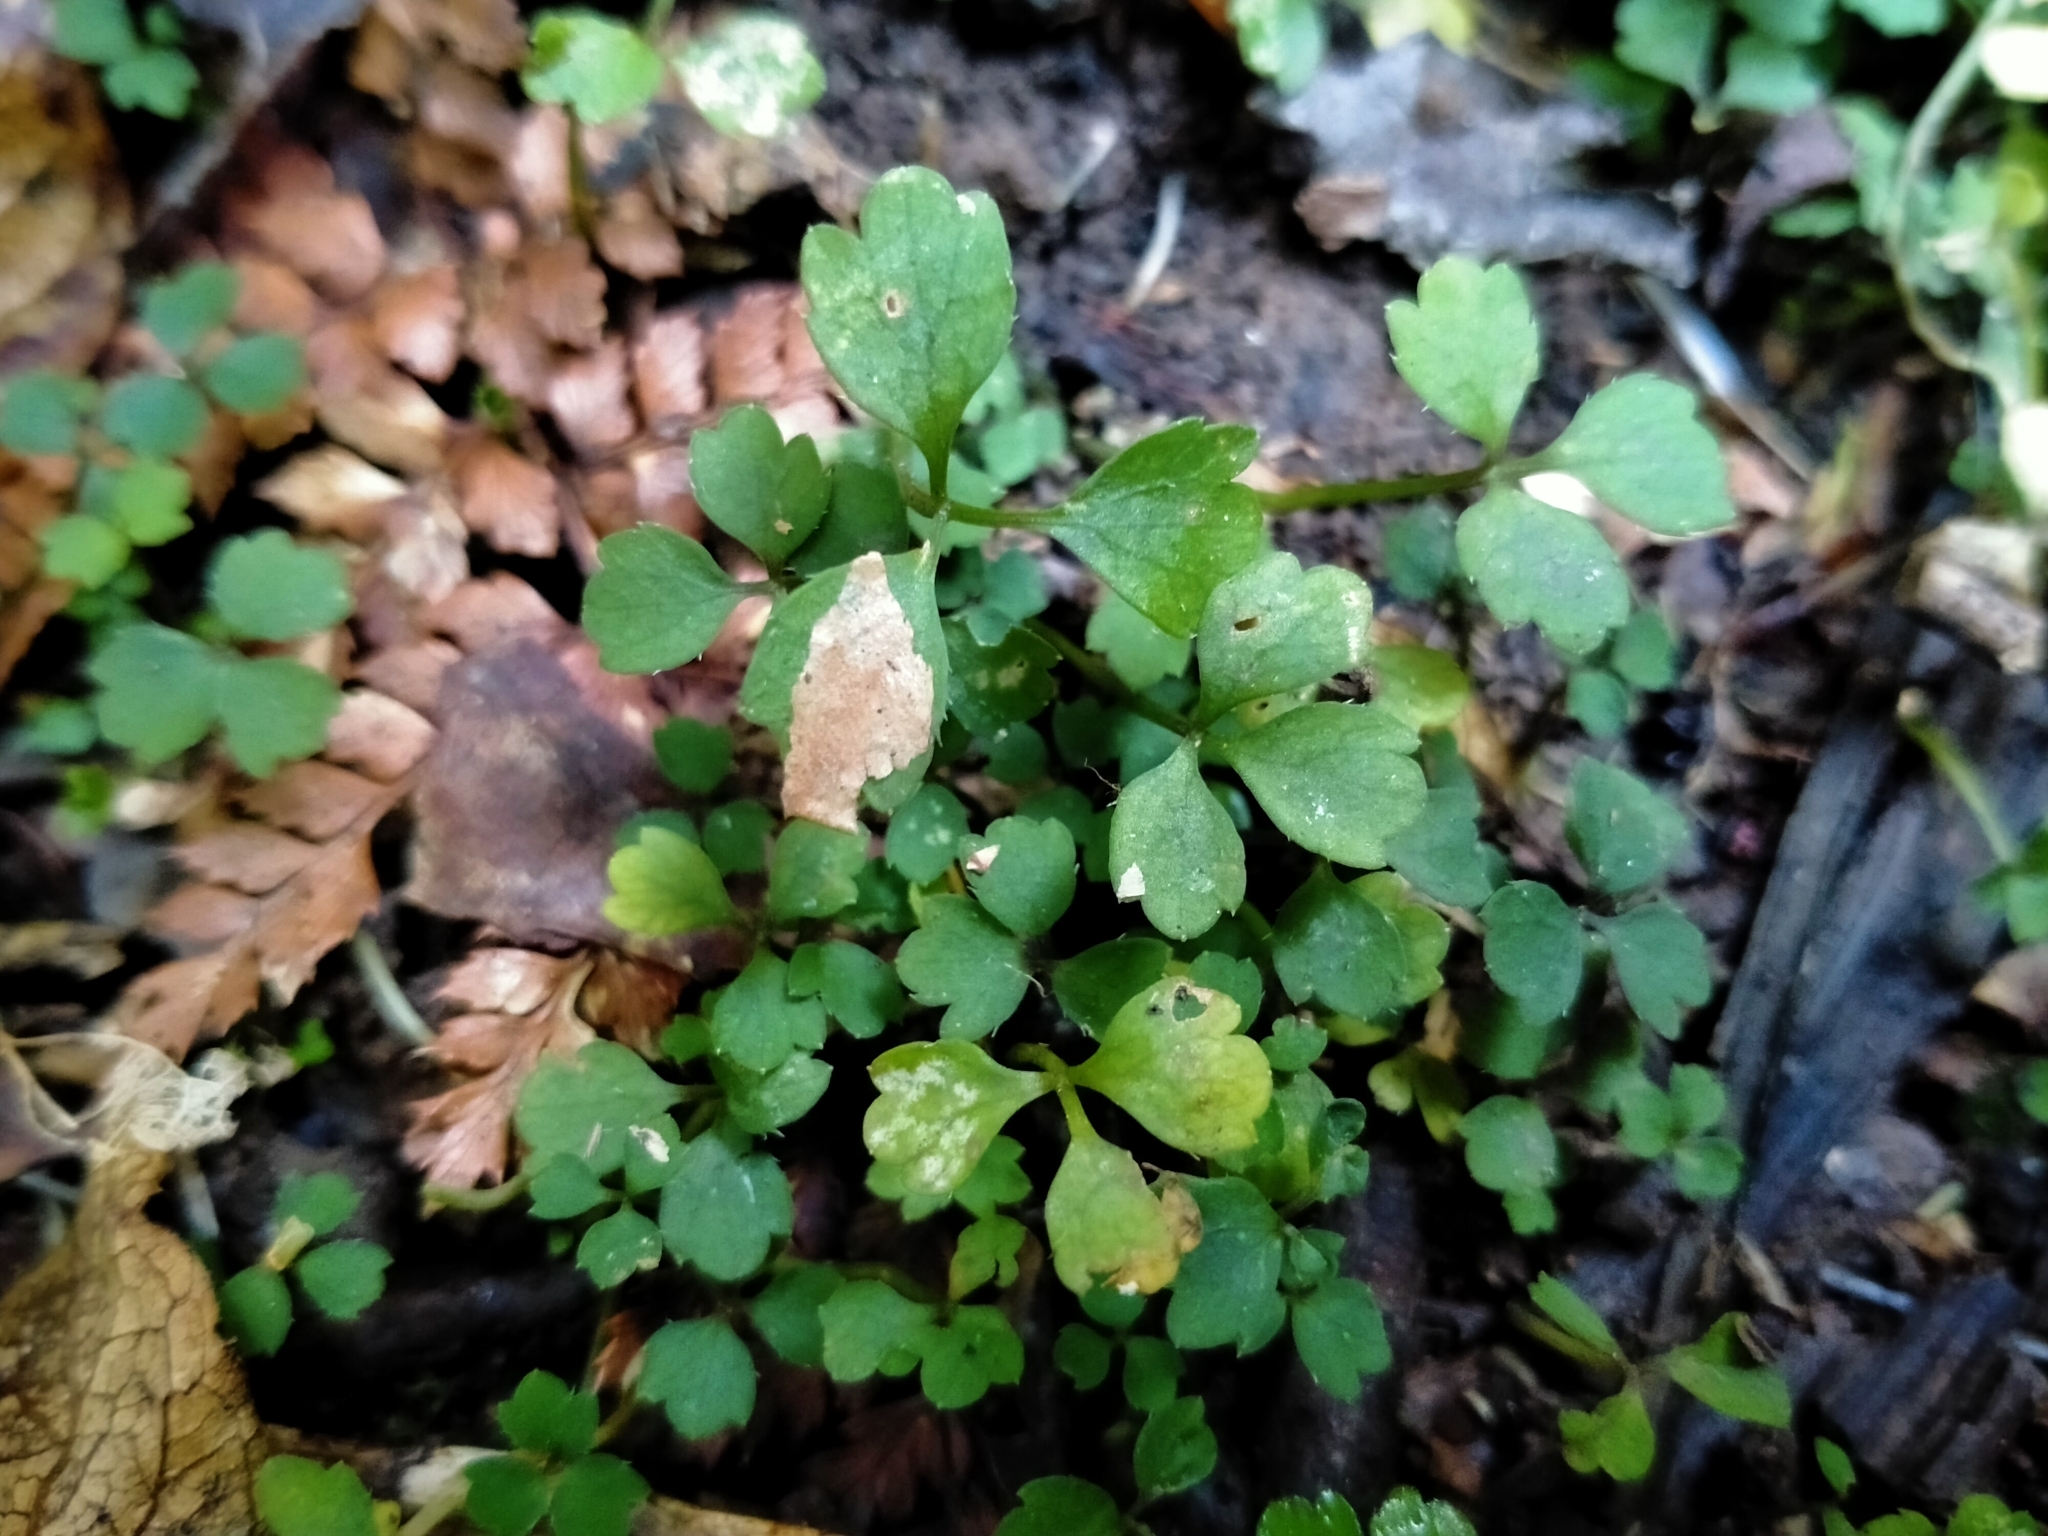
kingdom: Plantae
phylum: Tracheophyta
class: Magnoliopsida
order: Apiales
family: Apiaceae
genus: Azorella
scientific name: Azorella hookeri
